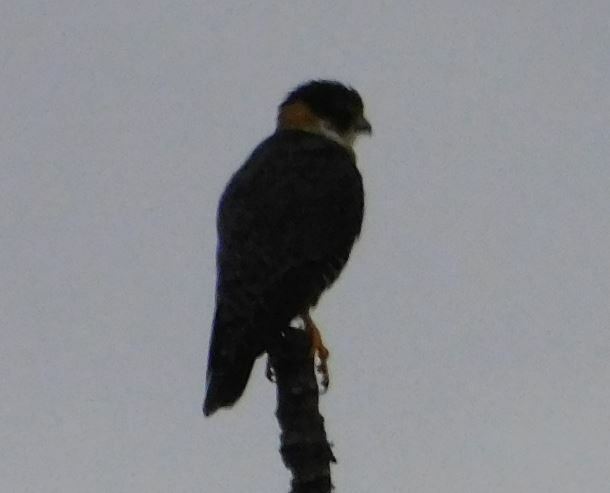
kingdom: Animalia
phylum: Chordata
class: Aves
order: Falconiformes
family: Falconidae
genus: Falco
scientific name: Falco rufigularis
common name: Bat falcon
